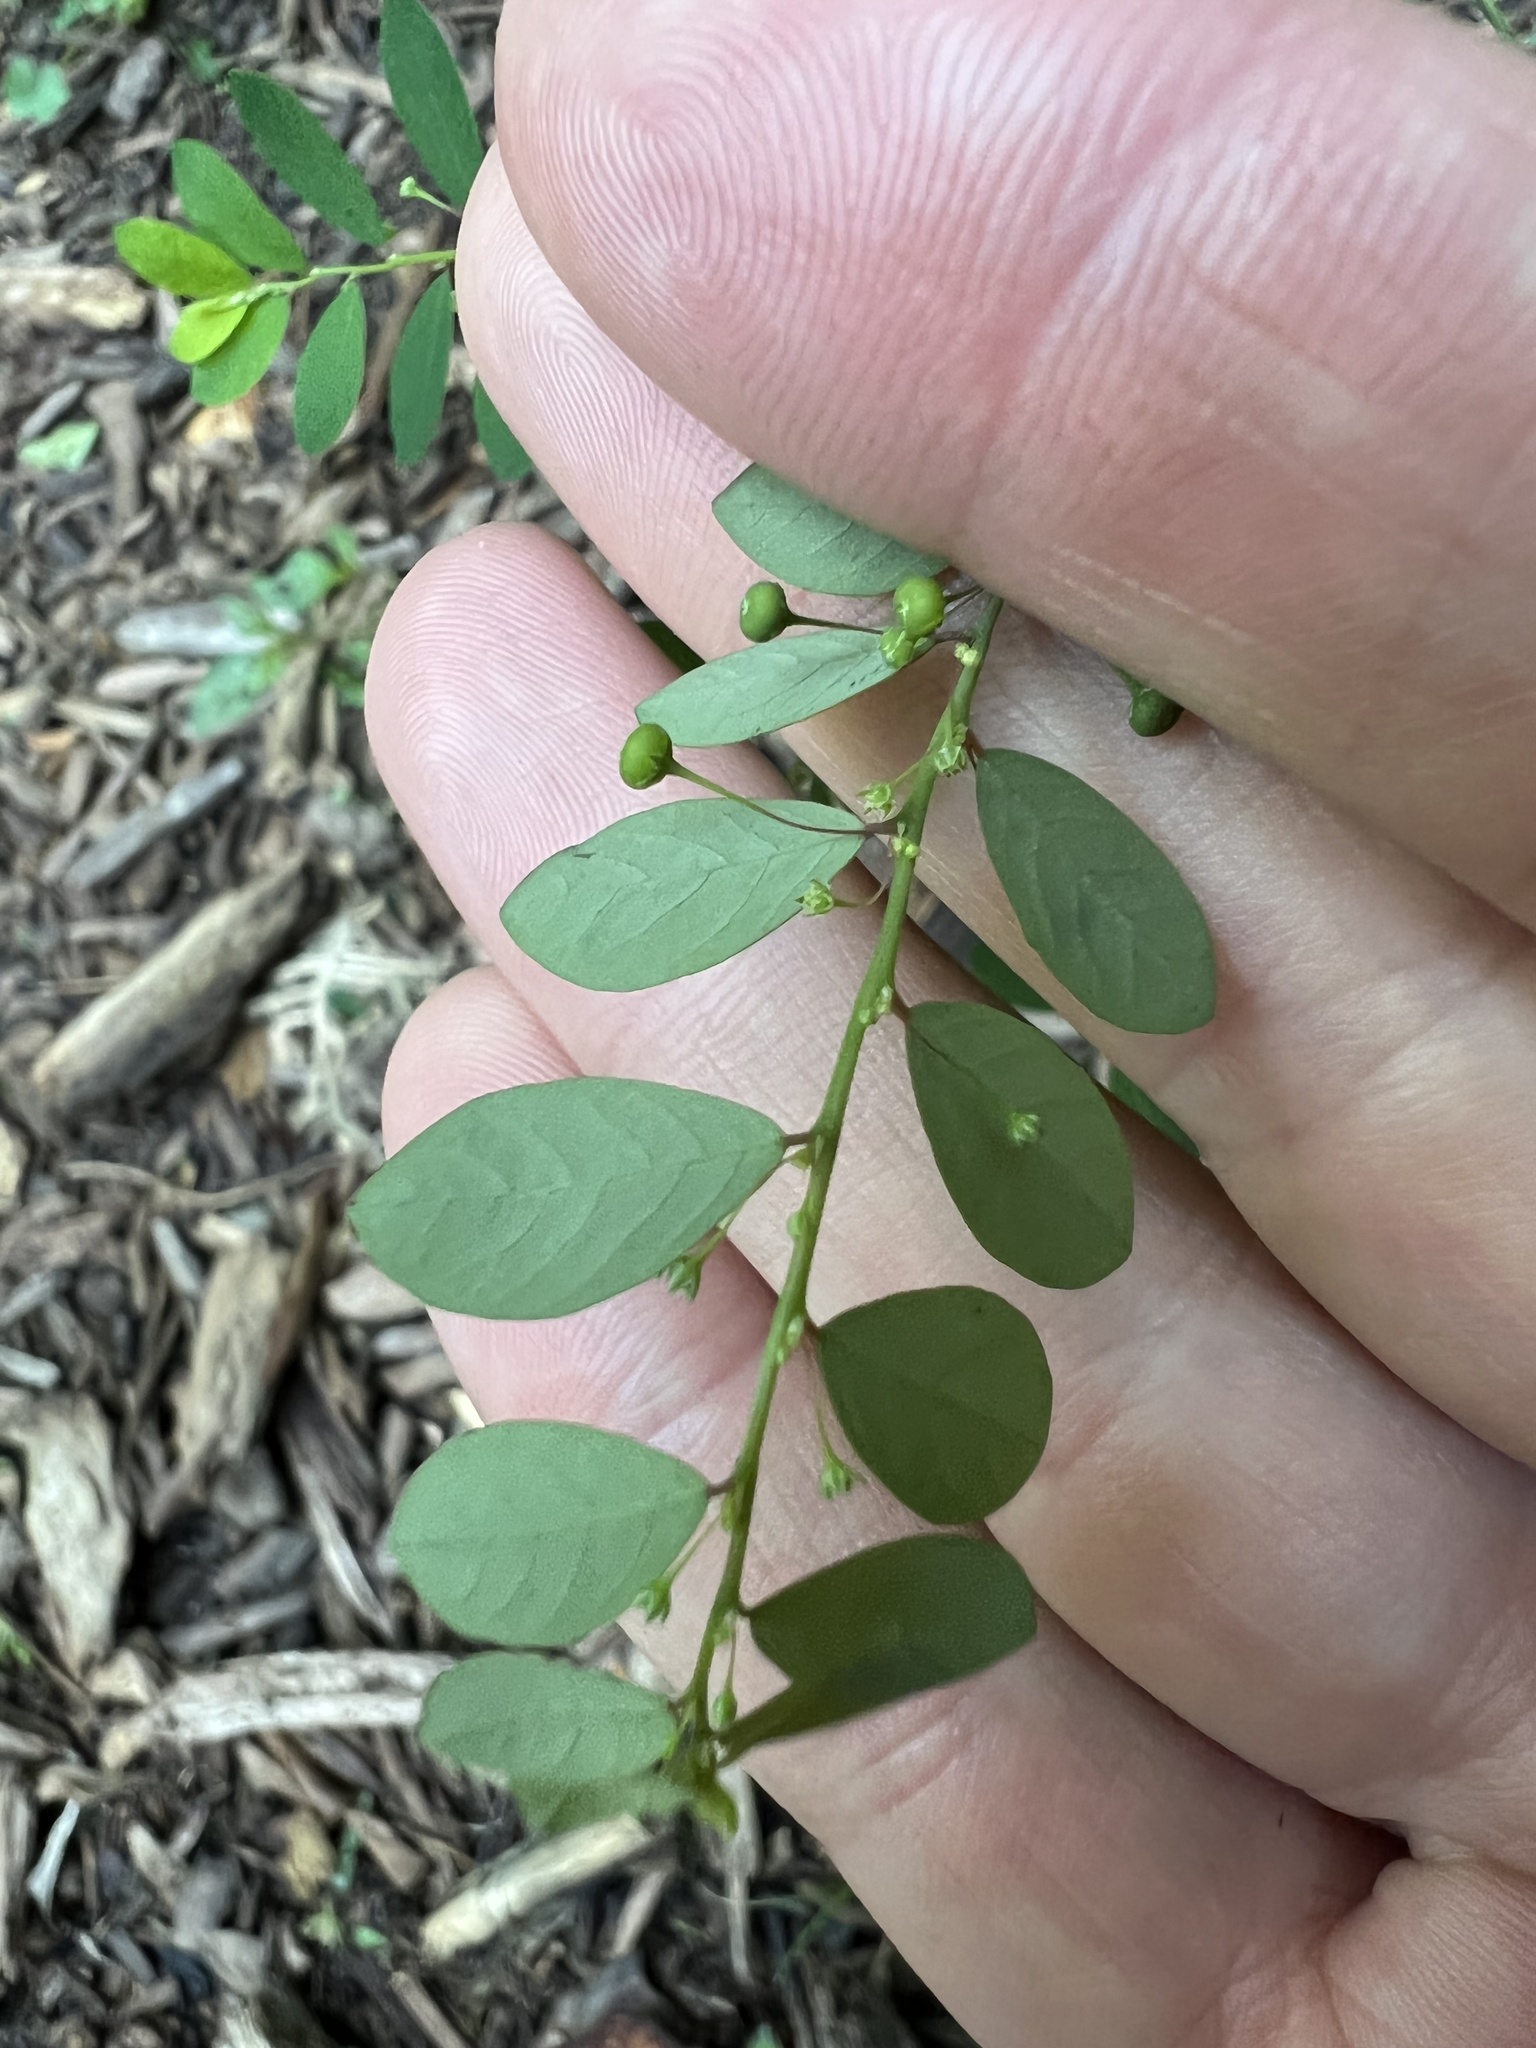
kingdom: Plantae
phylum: Tracheophyta
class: Magnoliopsida
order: Malpighiales
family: Phyllanthaceae
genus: Phyllanthus
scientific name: Phyllanthus tenellus
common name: Mascarene island leaf-flower
